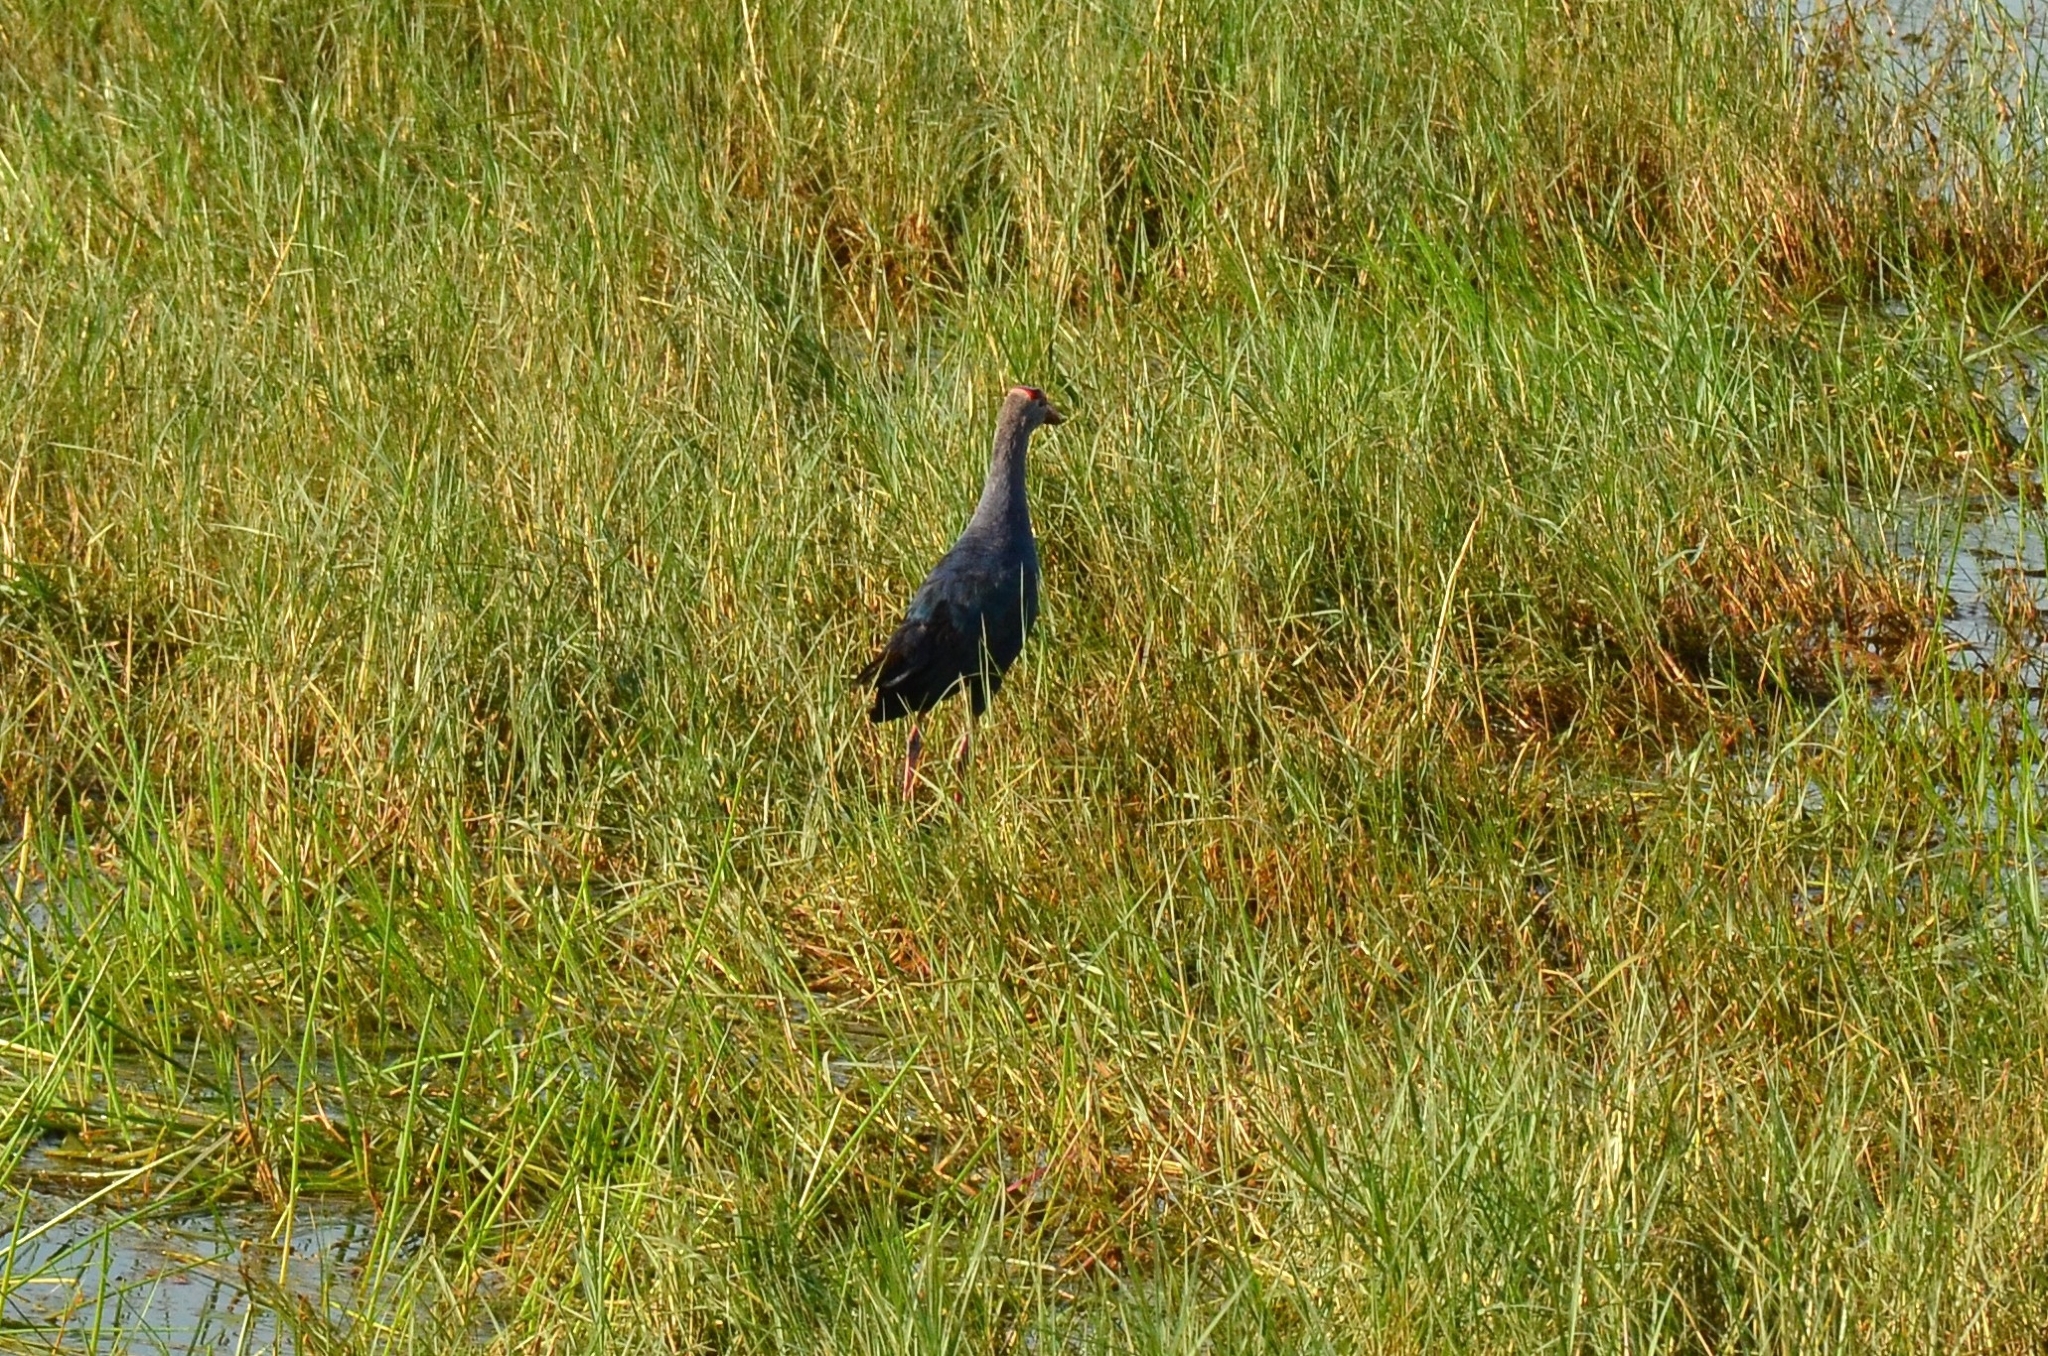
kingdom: Animalia
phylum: Chordata
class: Aves
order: Gruiformes
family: Rallidae
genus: Porphyrio
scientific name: Porphyrio porphyrio
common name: Purple swamphen
